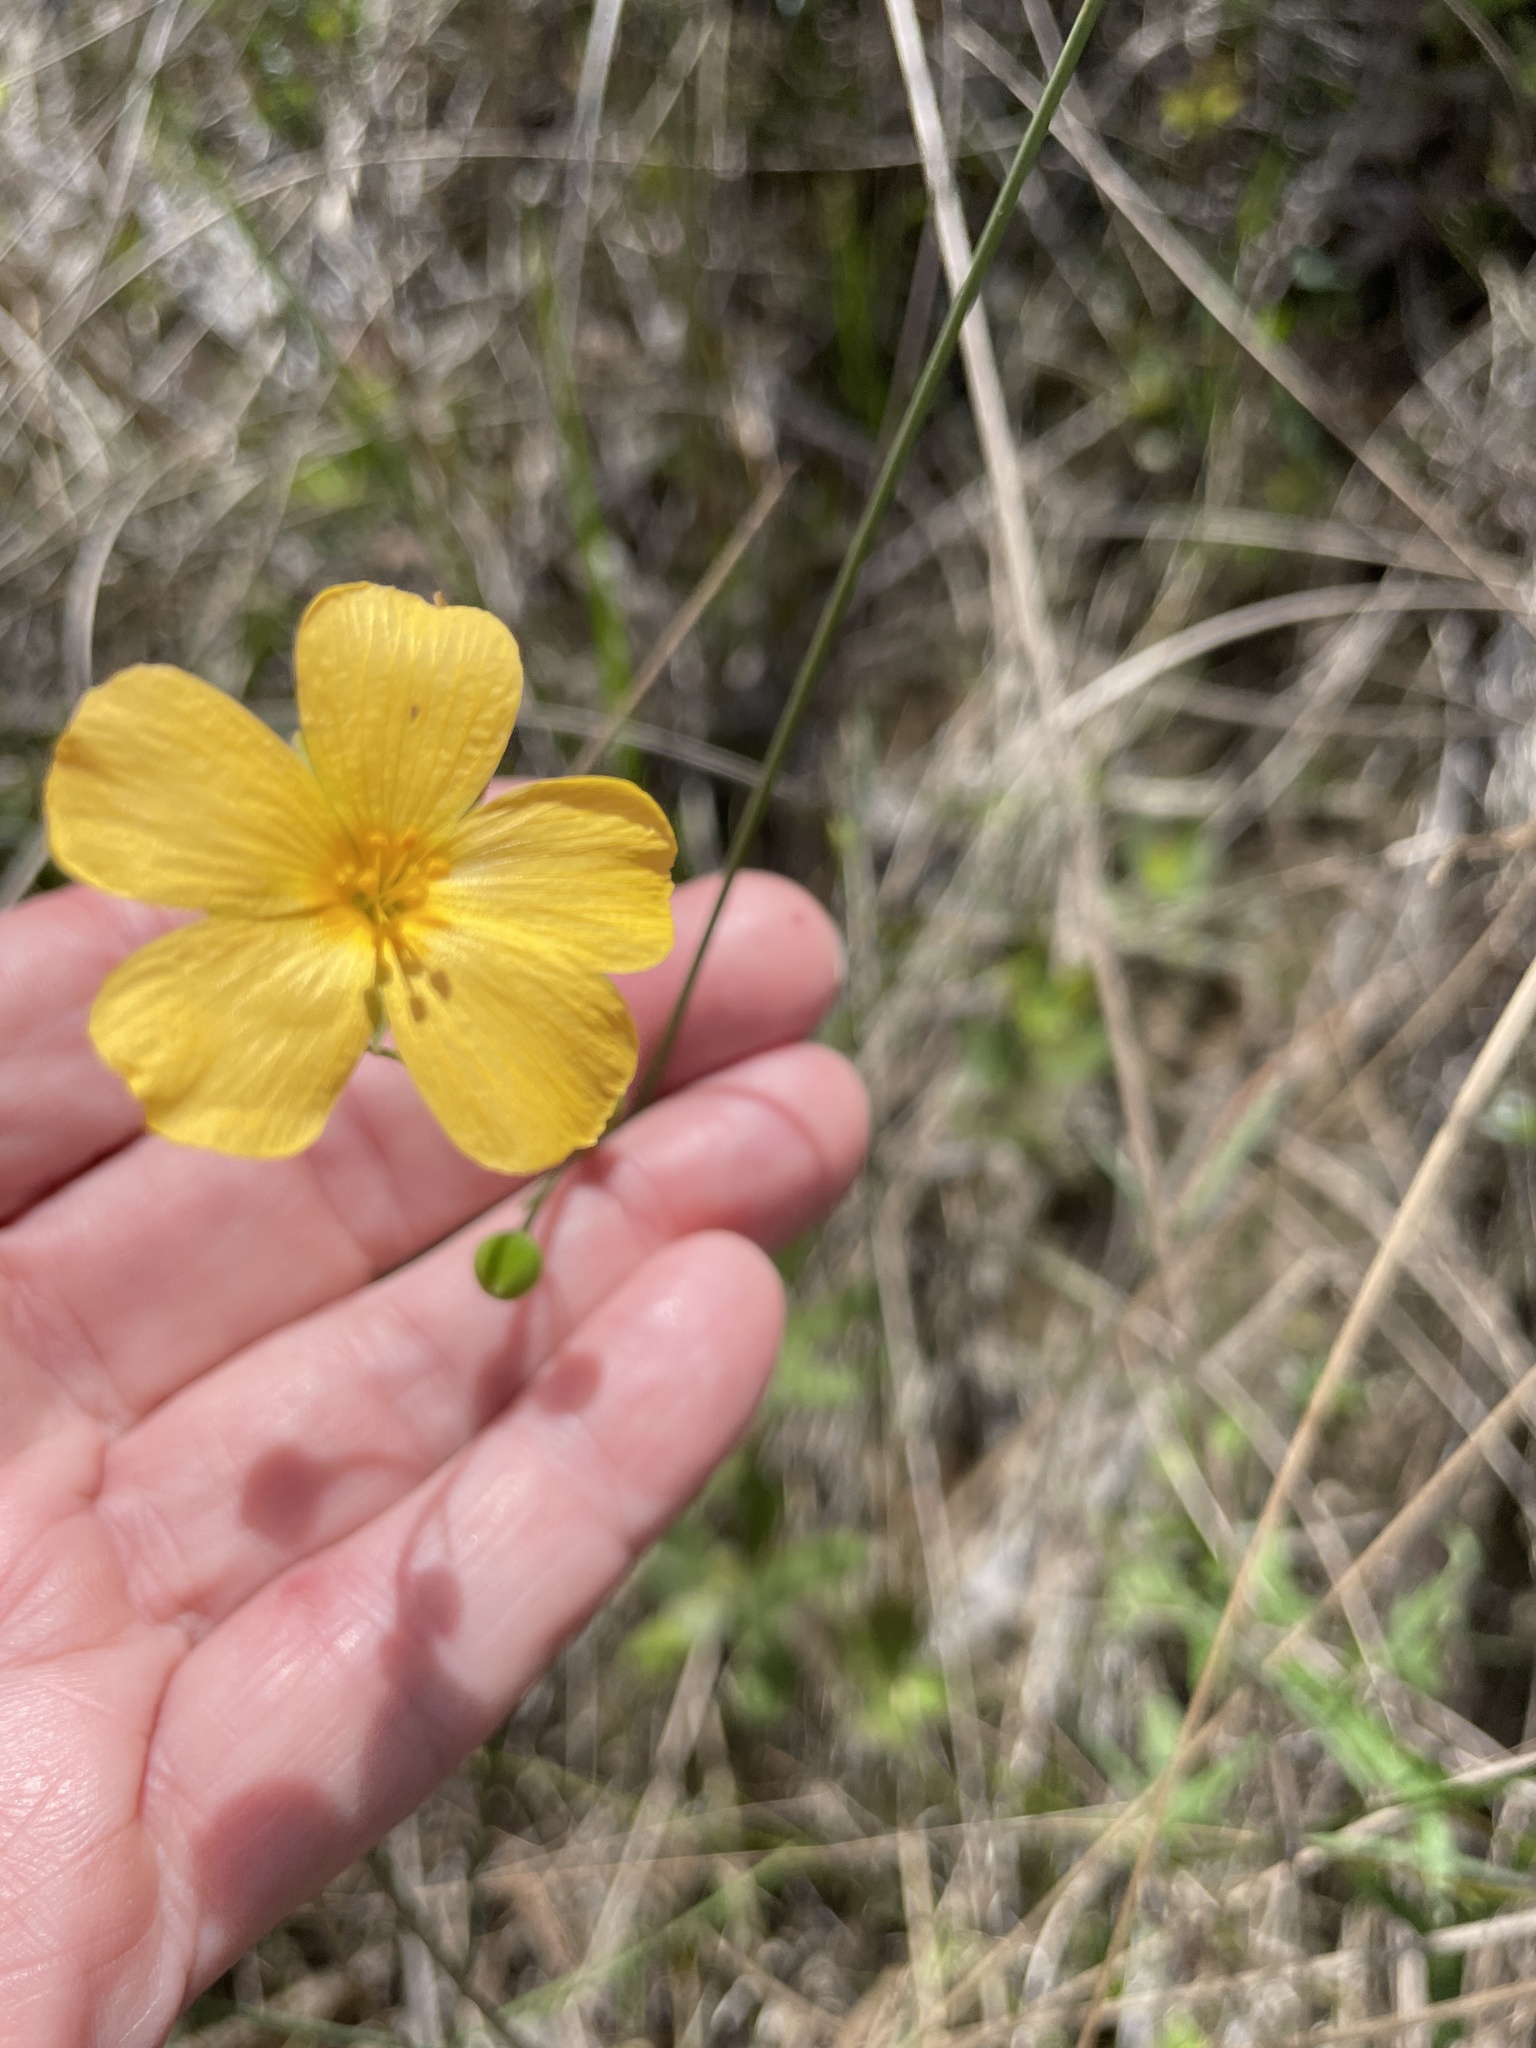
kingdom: Plantae
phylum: Tracheophyta
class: Magnoliopsida
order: Gentianales
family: Apocynaceae
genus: Asclepias
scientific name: Asclepias lanceolata
